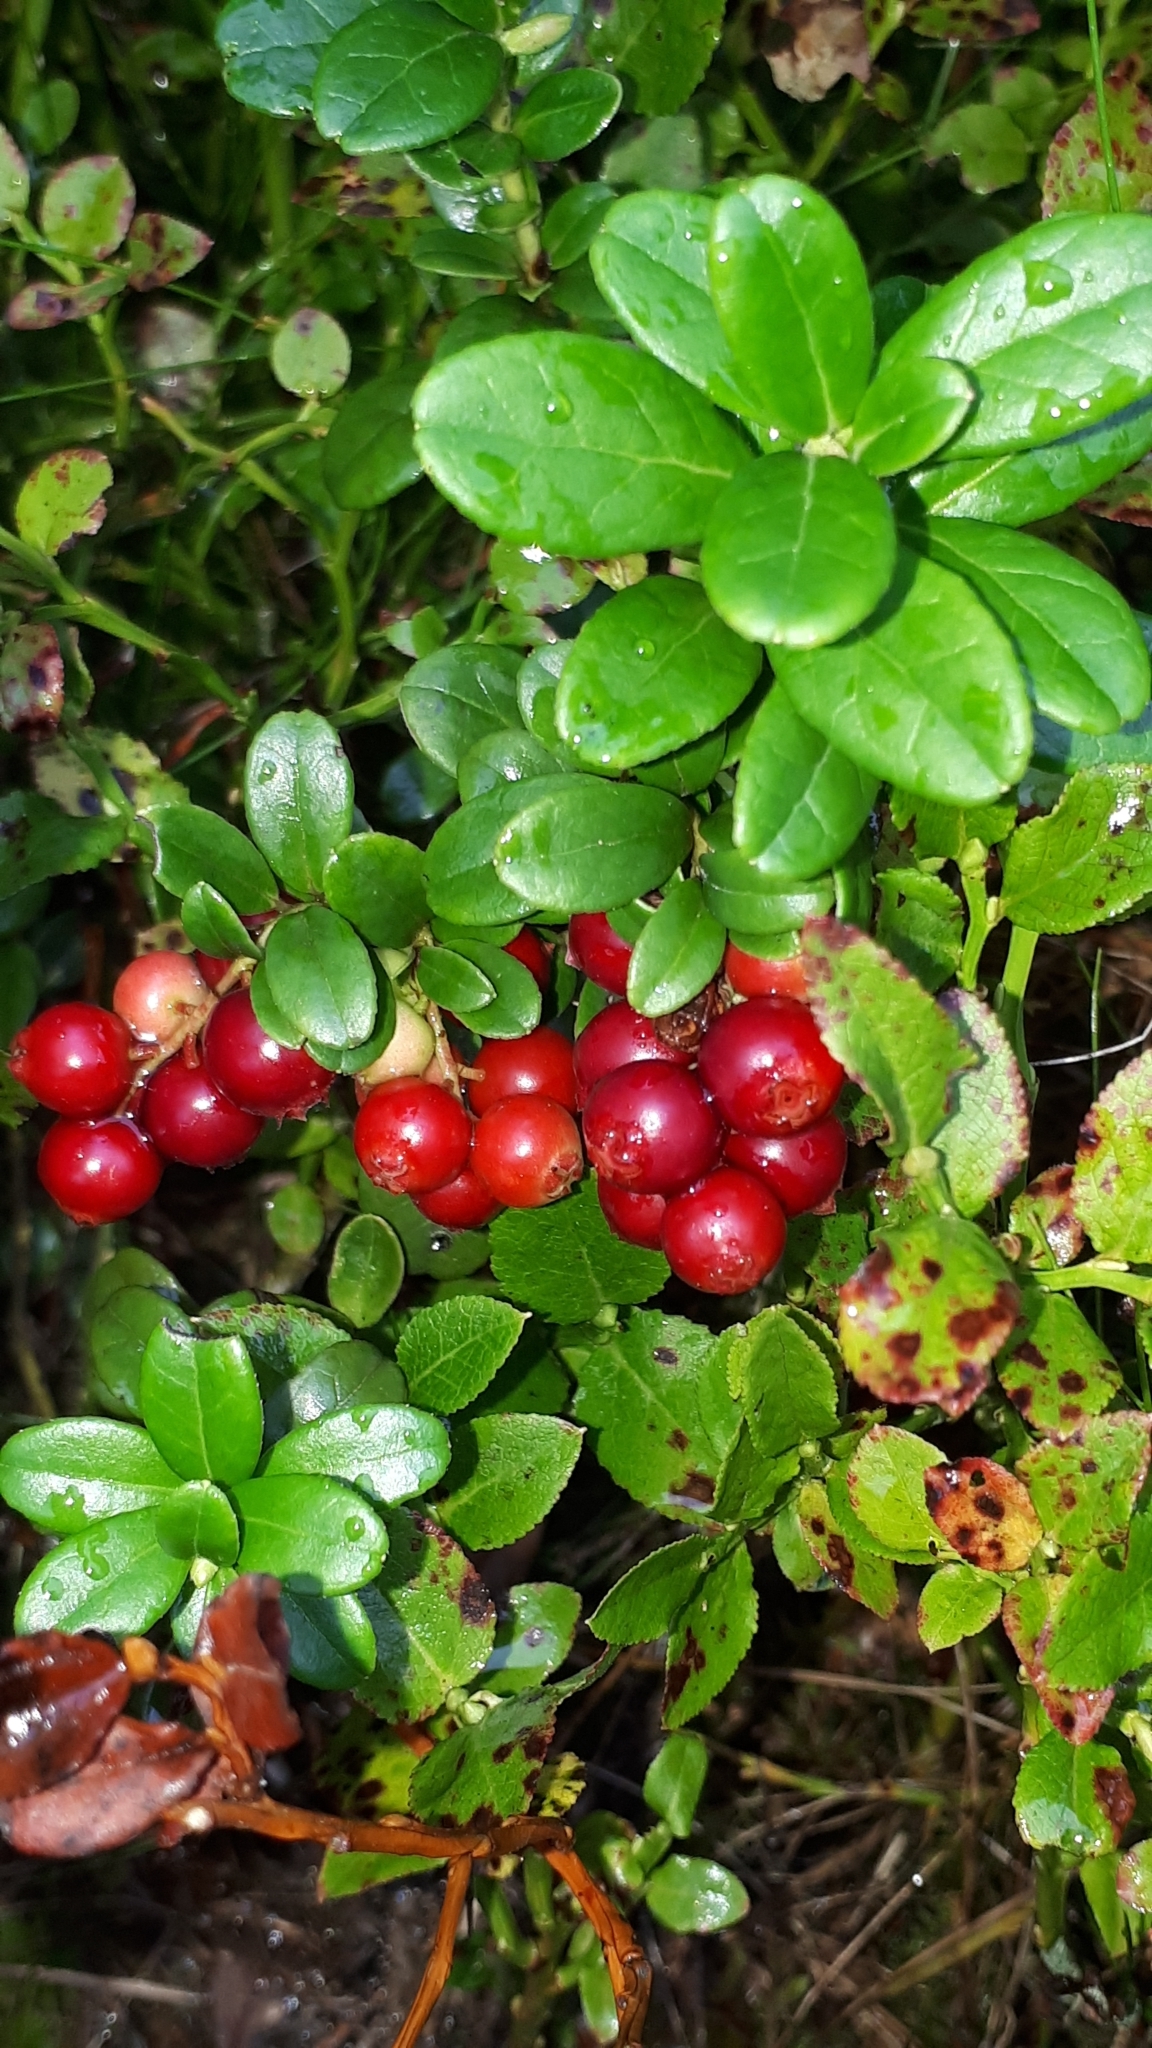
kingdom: Plantae
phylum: Tracheophyta
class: Magnoliopsida
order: Ericales
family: Ericaceae
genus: Vaccinium
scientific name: Vaccinium vitis-idaea
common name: Cowberry
